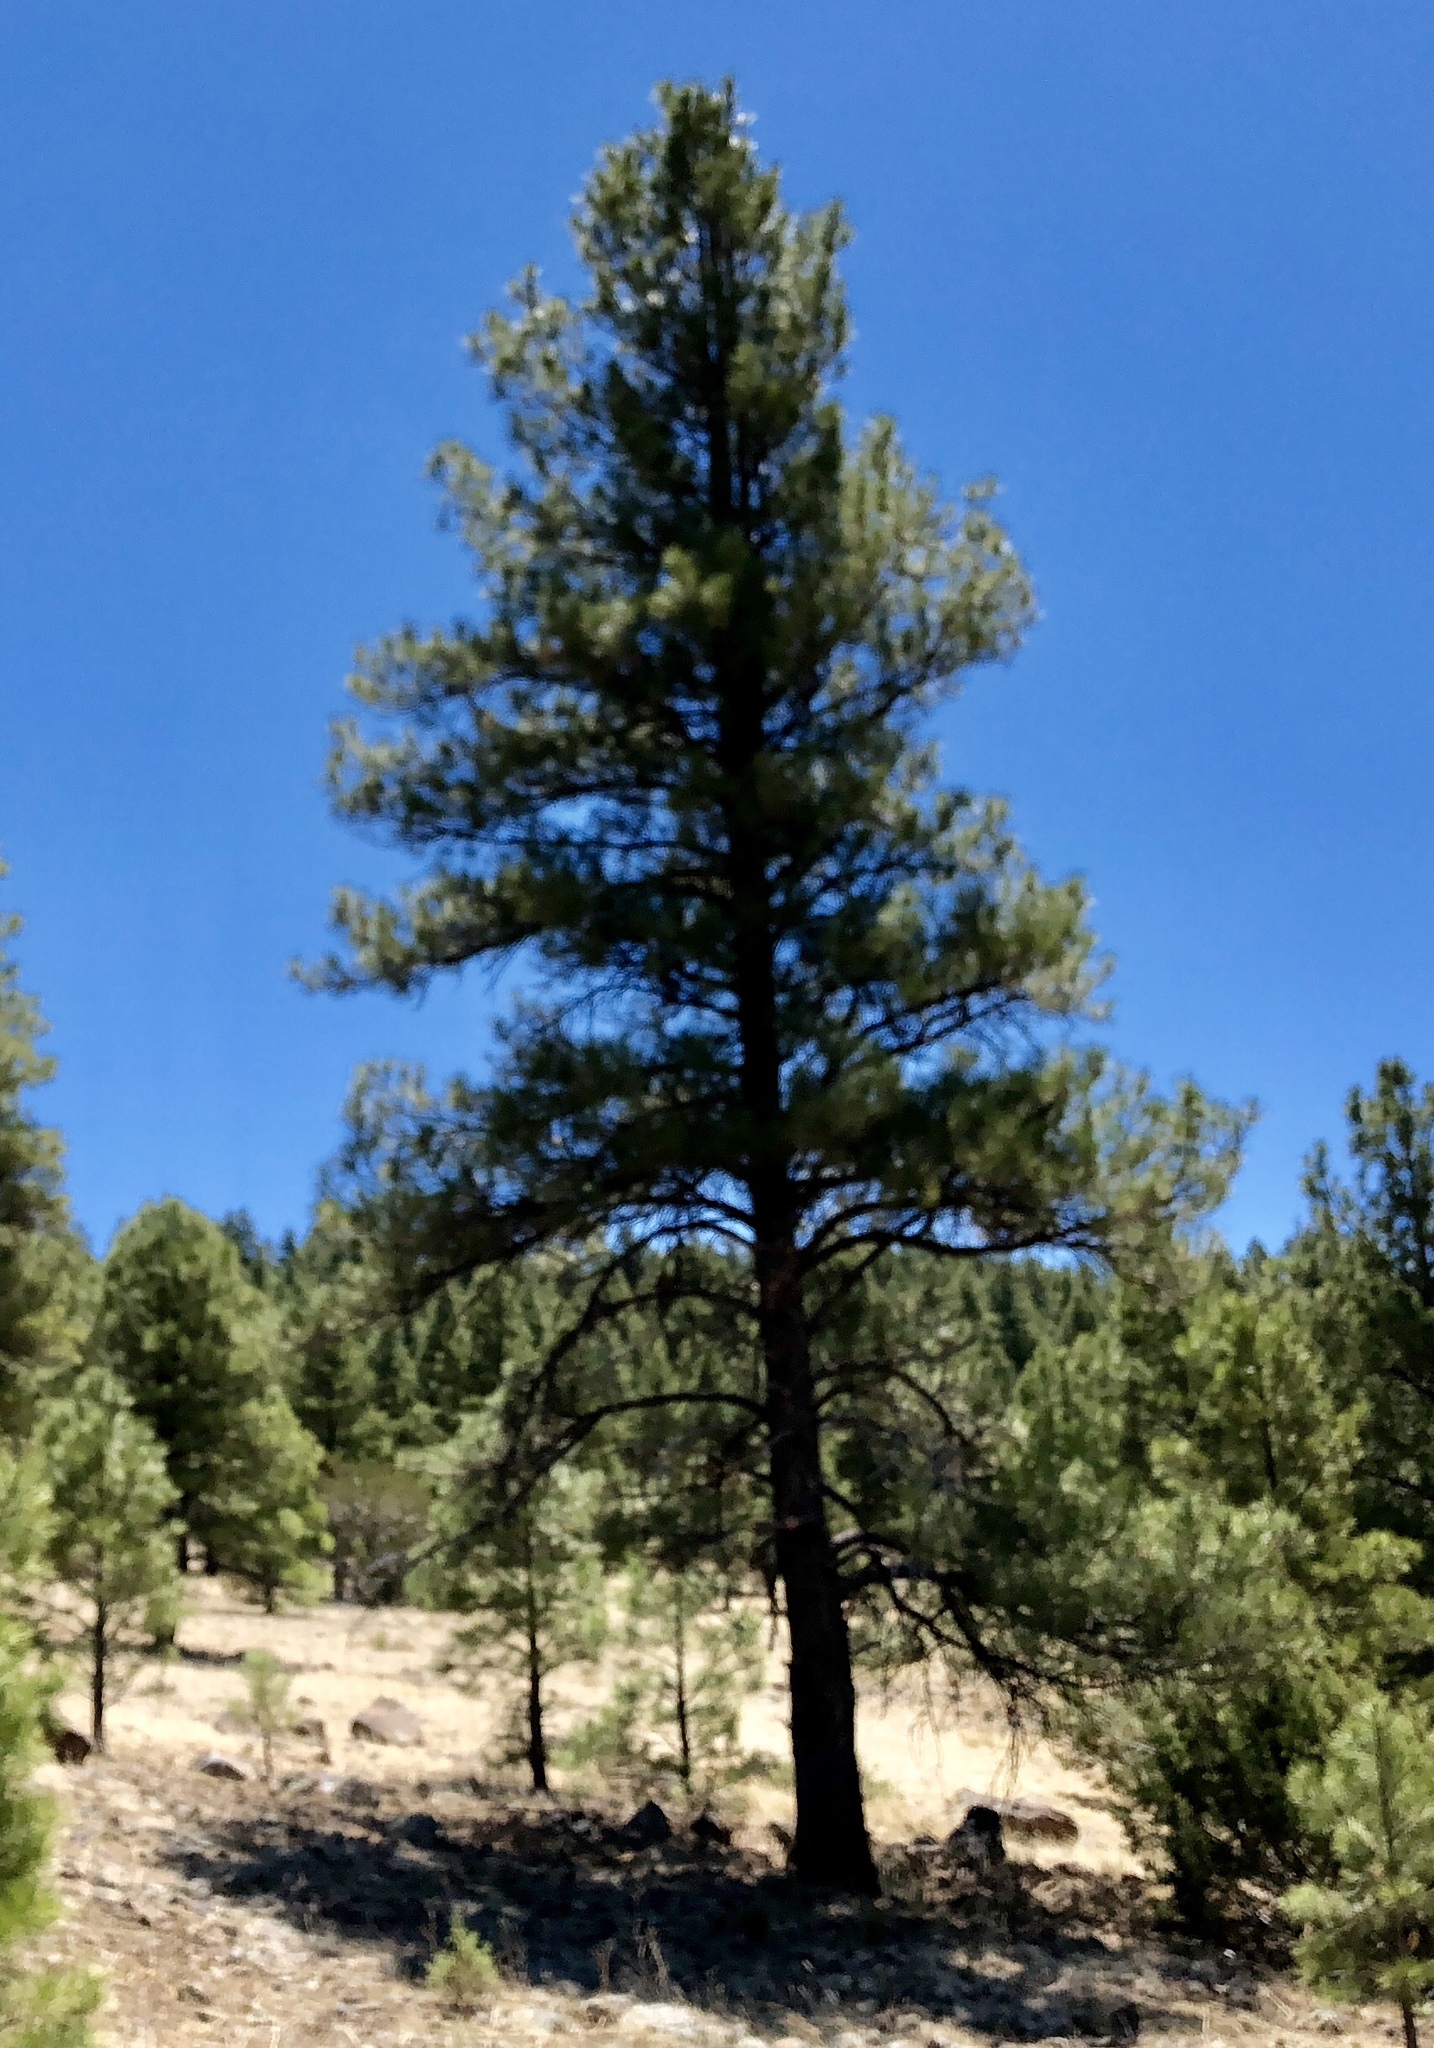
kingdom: Plantae
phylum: Tracheophyta
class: Pinopsida
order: Pinales
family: Pinaceae
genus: Pinus
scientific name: Pinus ponderosa
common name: Western yellow-pine
